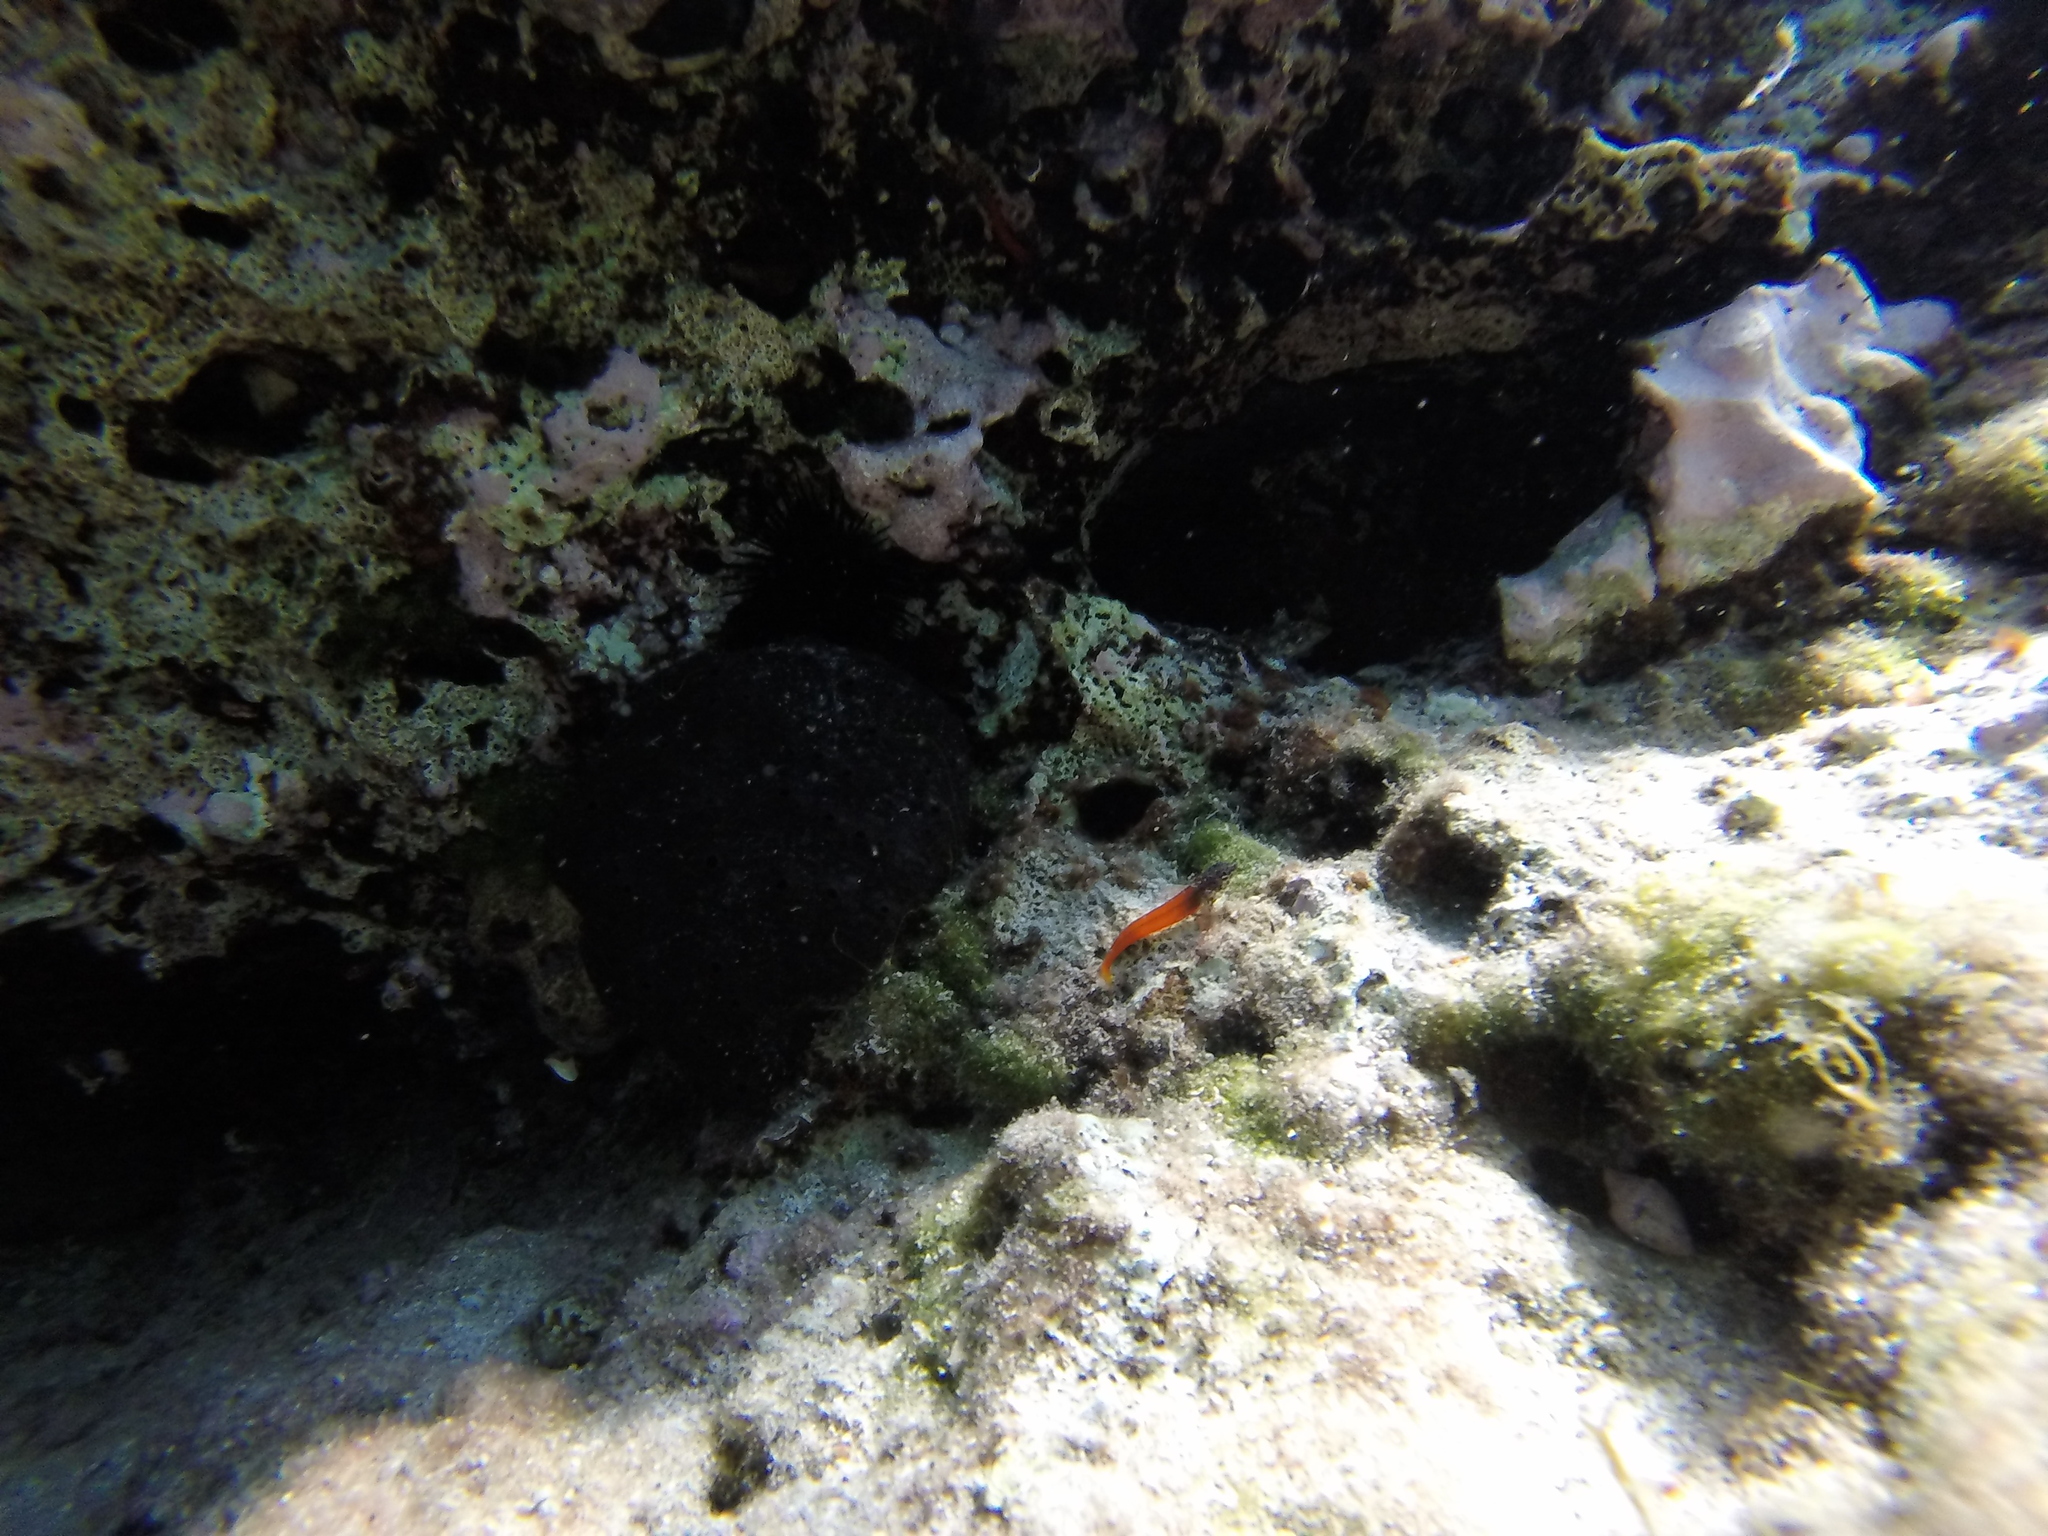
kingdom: Animalia
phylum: Chordata
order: Perciformes
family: Tripterygiidae
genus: Tripterygion
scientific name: Tripterygion melanurum
